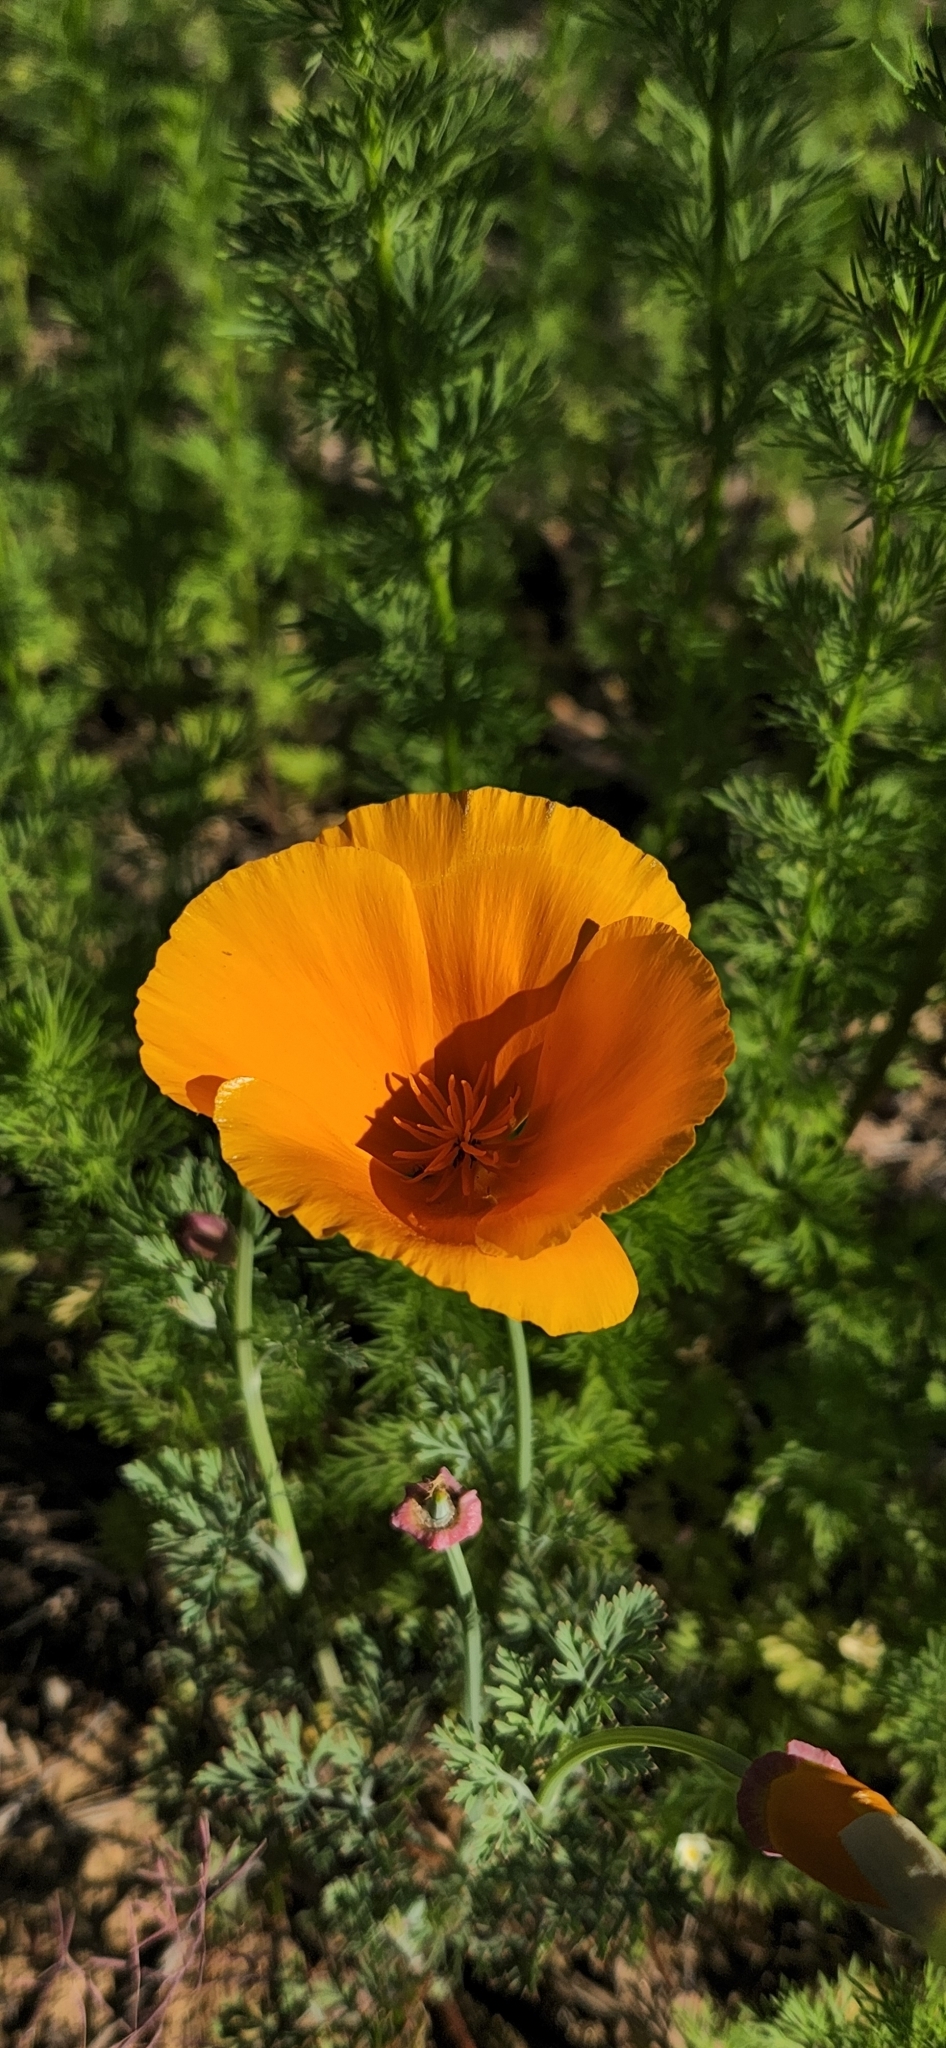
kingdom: Plantae
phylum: Tracheophyta
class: Magnoliopsida
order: Ranunculales
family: Papaveraceae
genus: Eschscholzia
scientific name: Eschscholzia californica
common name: California poppy
